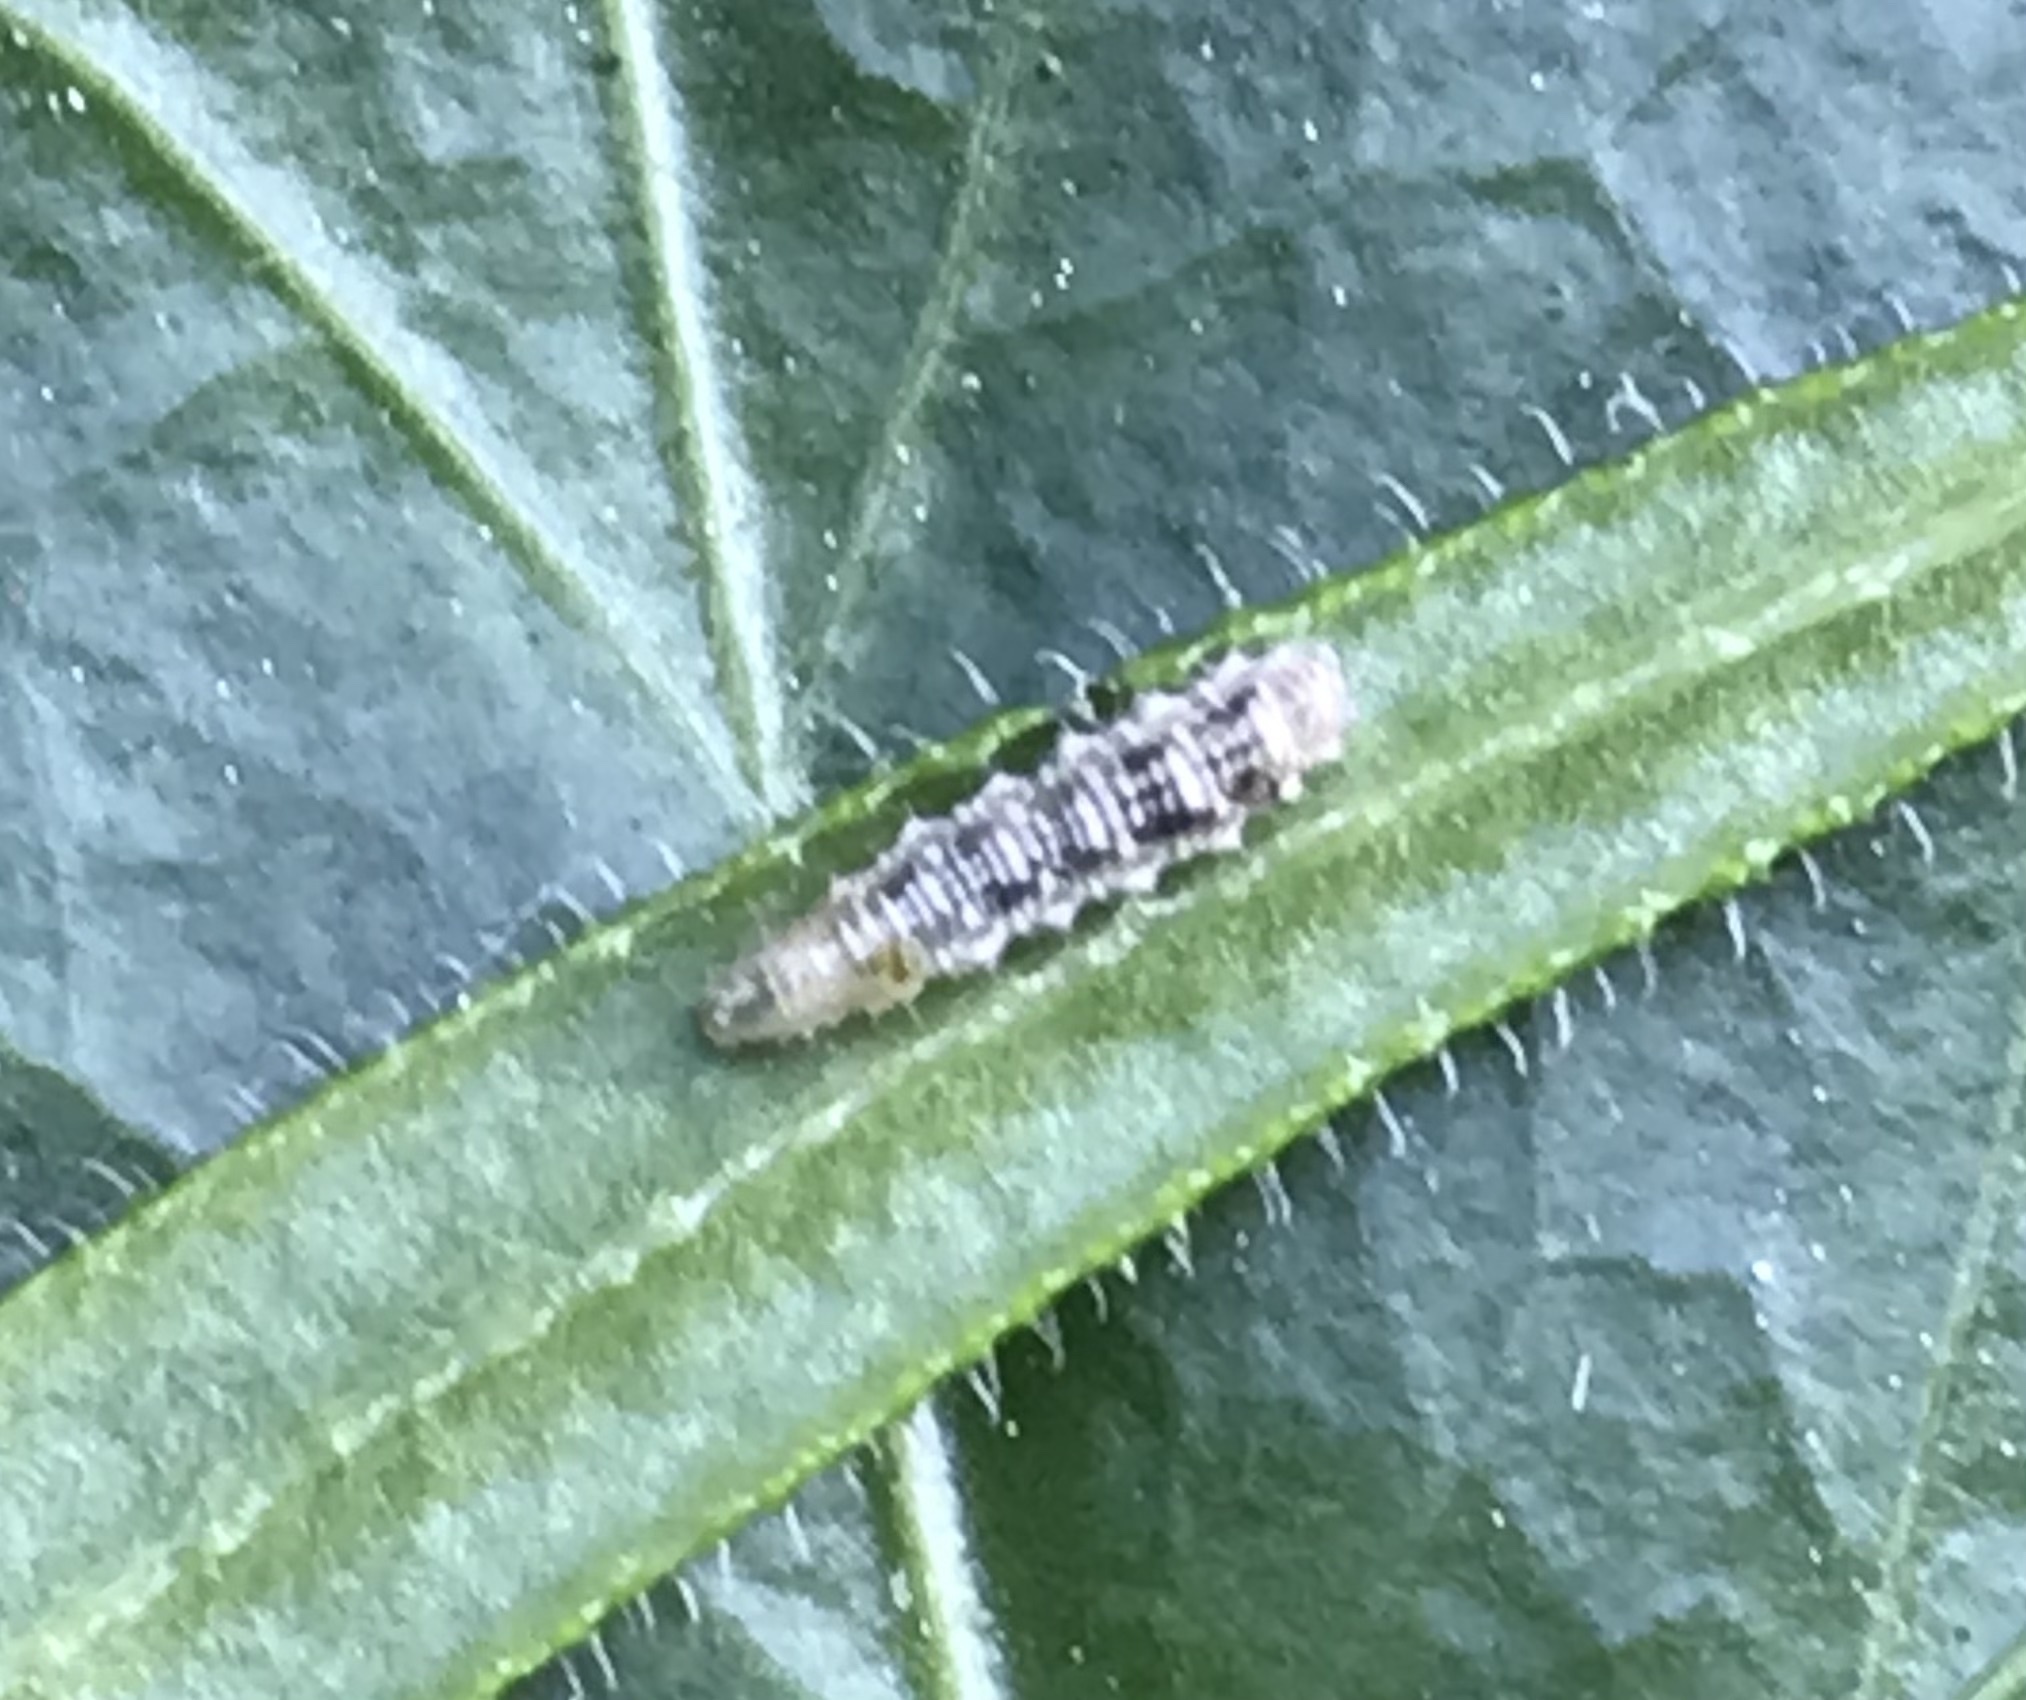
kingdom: Animalia
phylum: Arthropoda
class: Insecta
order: Diptera
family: Syrphidae
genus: Eupeodes
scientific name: Eupeodes
